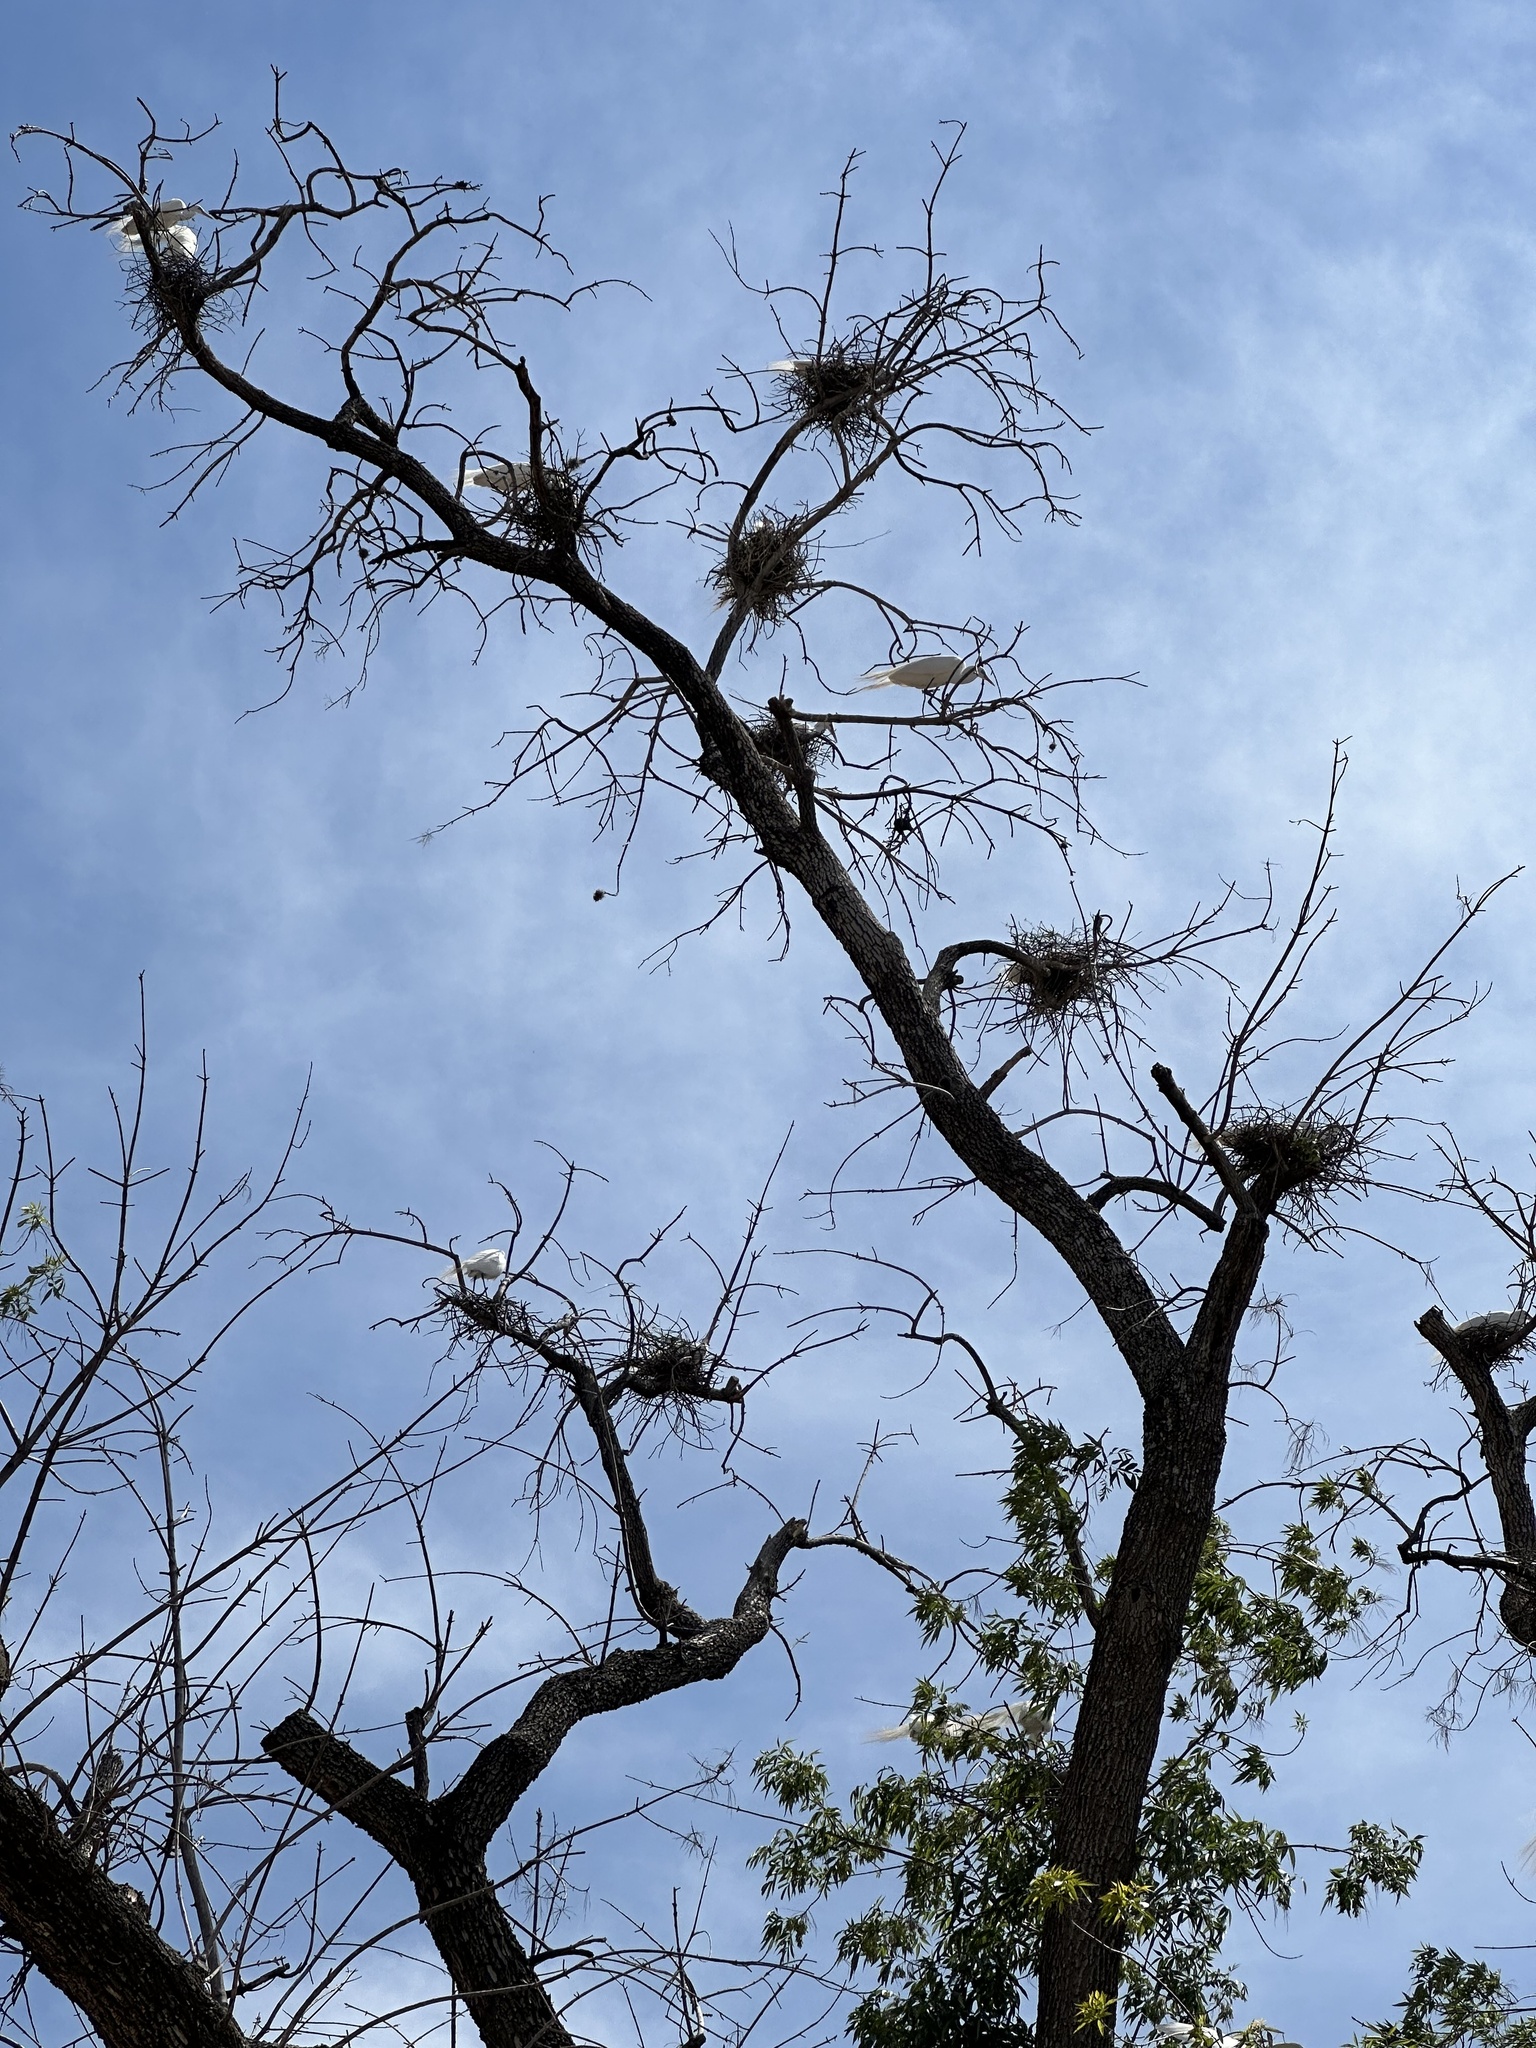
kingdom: Animalia
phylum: Chordata
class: Aves
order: Pelecaniformes
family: Ardeidae
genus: Ardea
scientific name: Ardea alba
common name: Great egret
